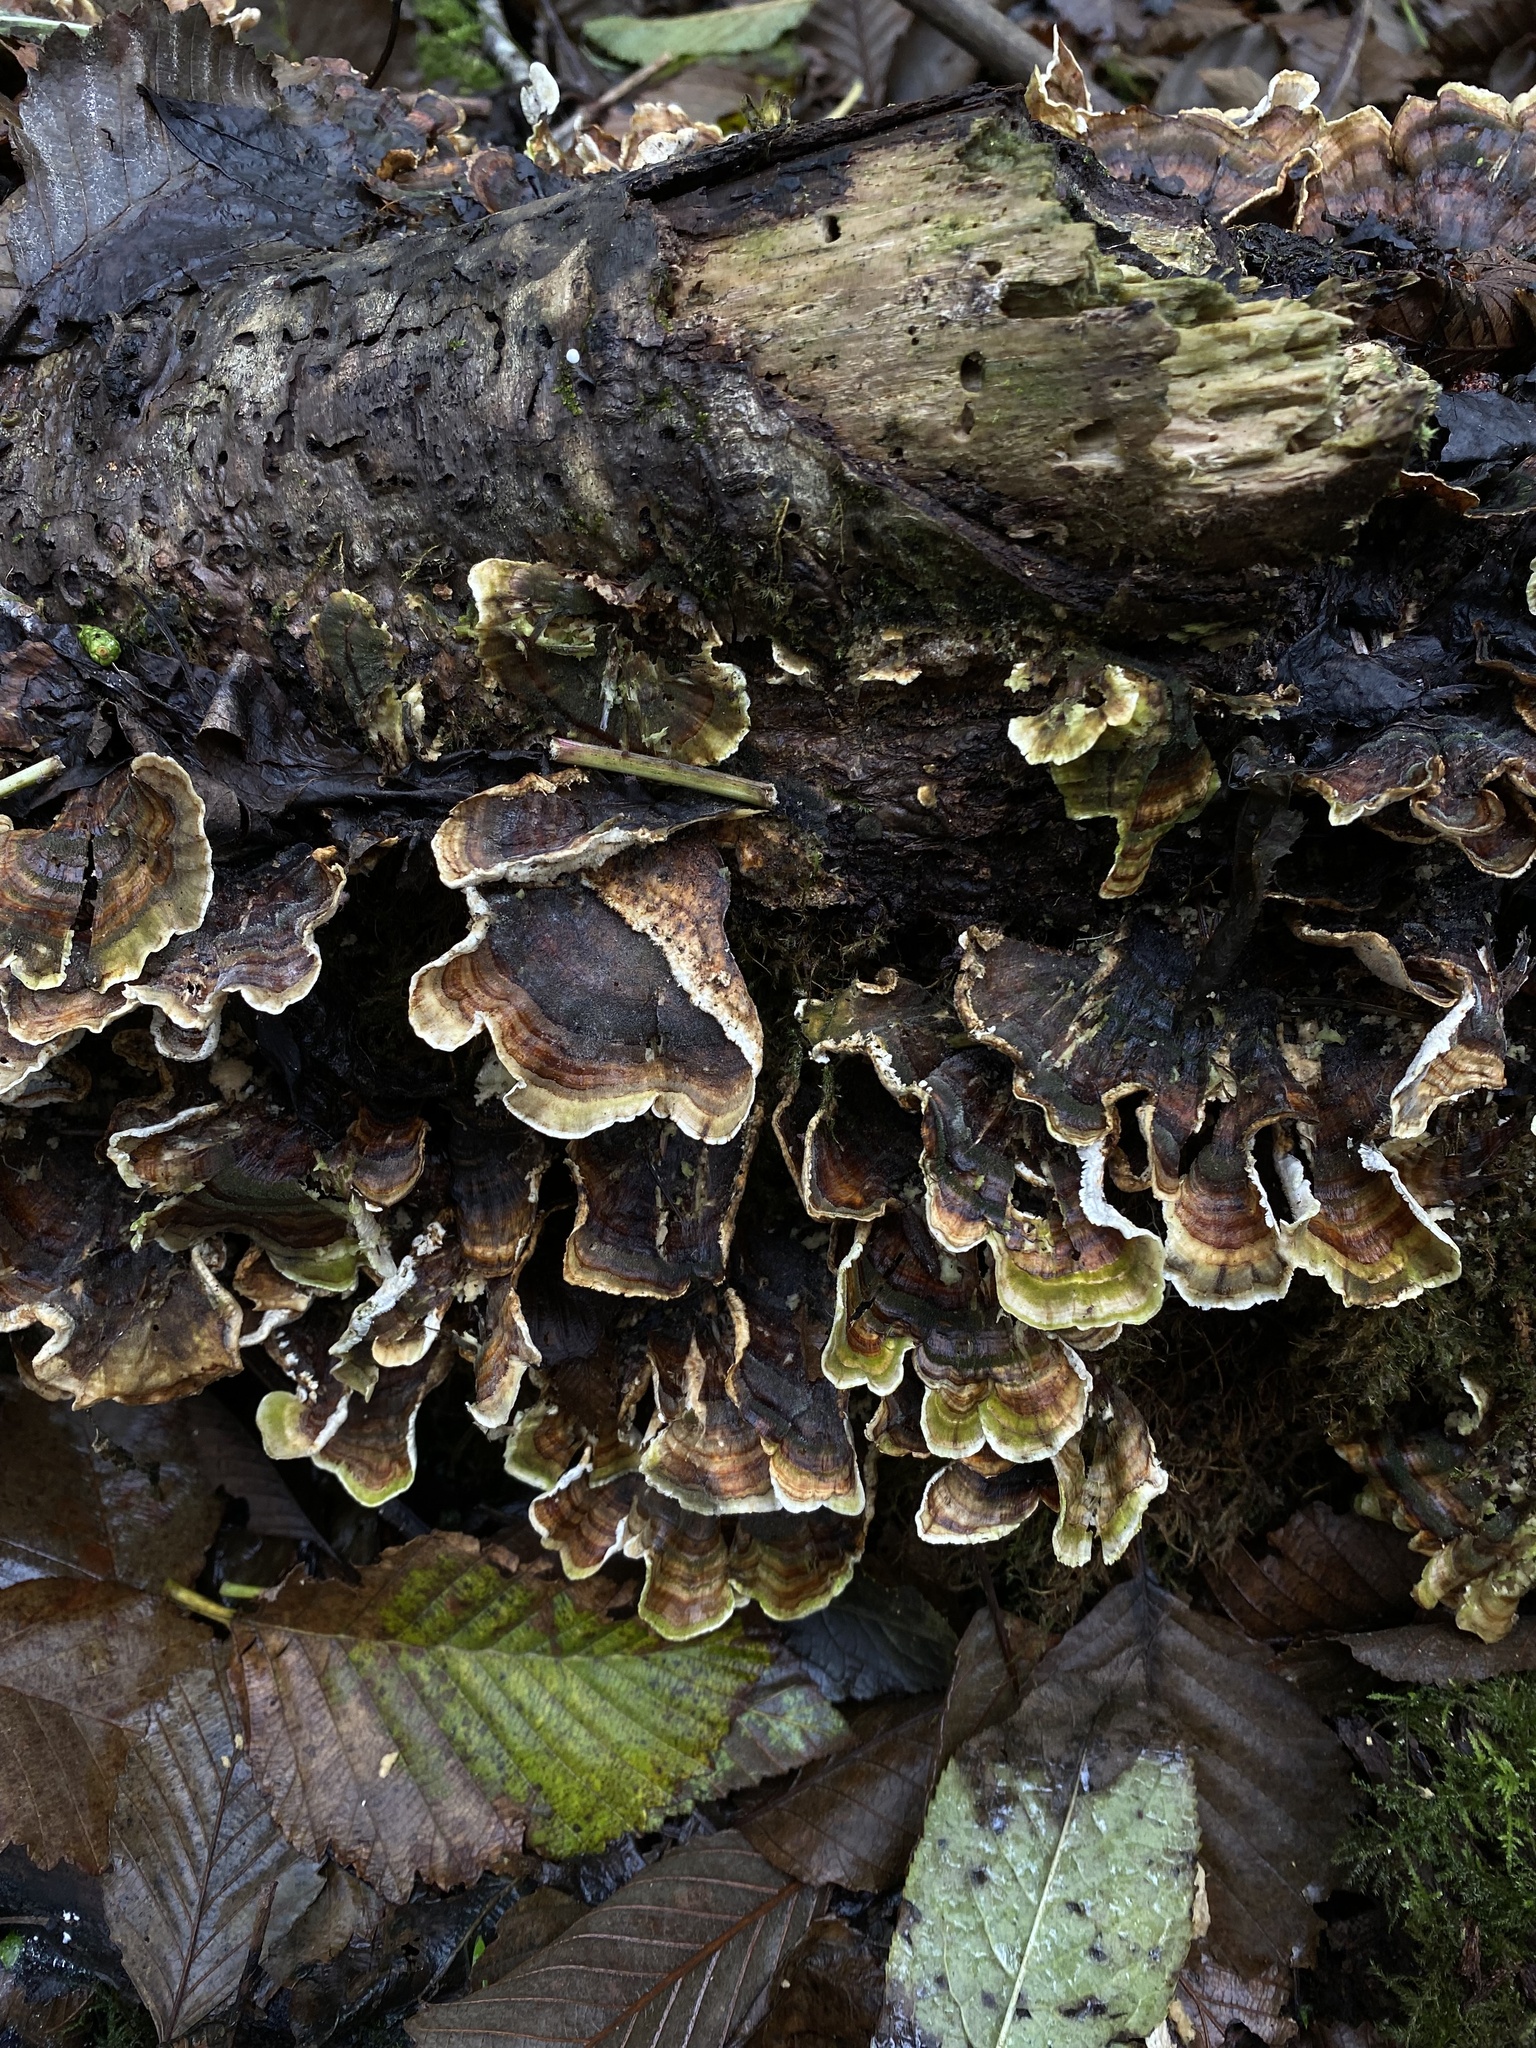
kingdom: Fungi
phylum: Basidiomycota
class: Agaricomycetes
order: Polyporales
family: Polyporaceae
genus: Trametes
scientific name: Trametes versicolor
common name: Turkeytail
